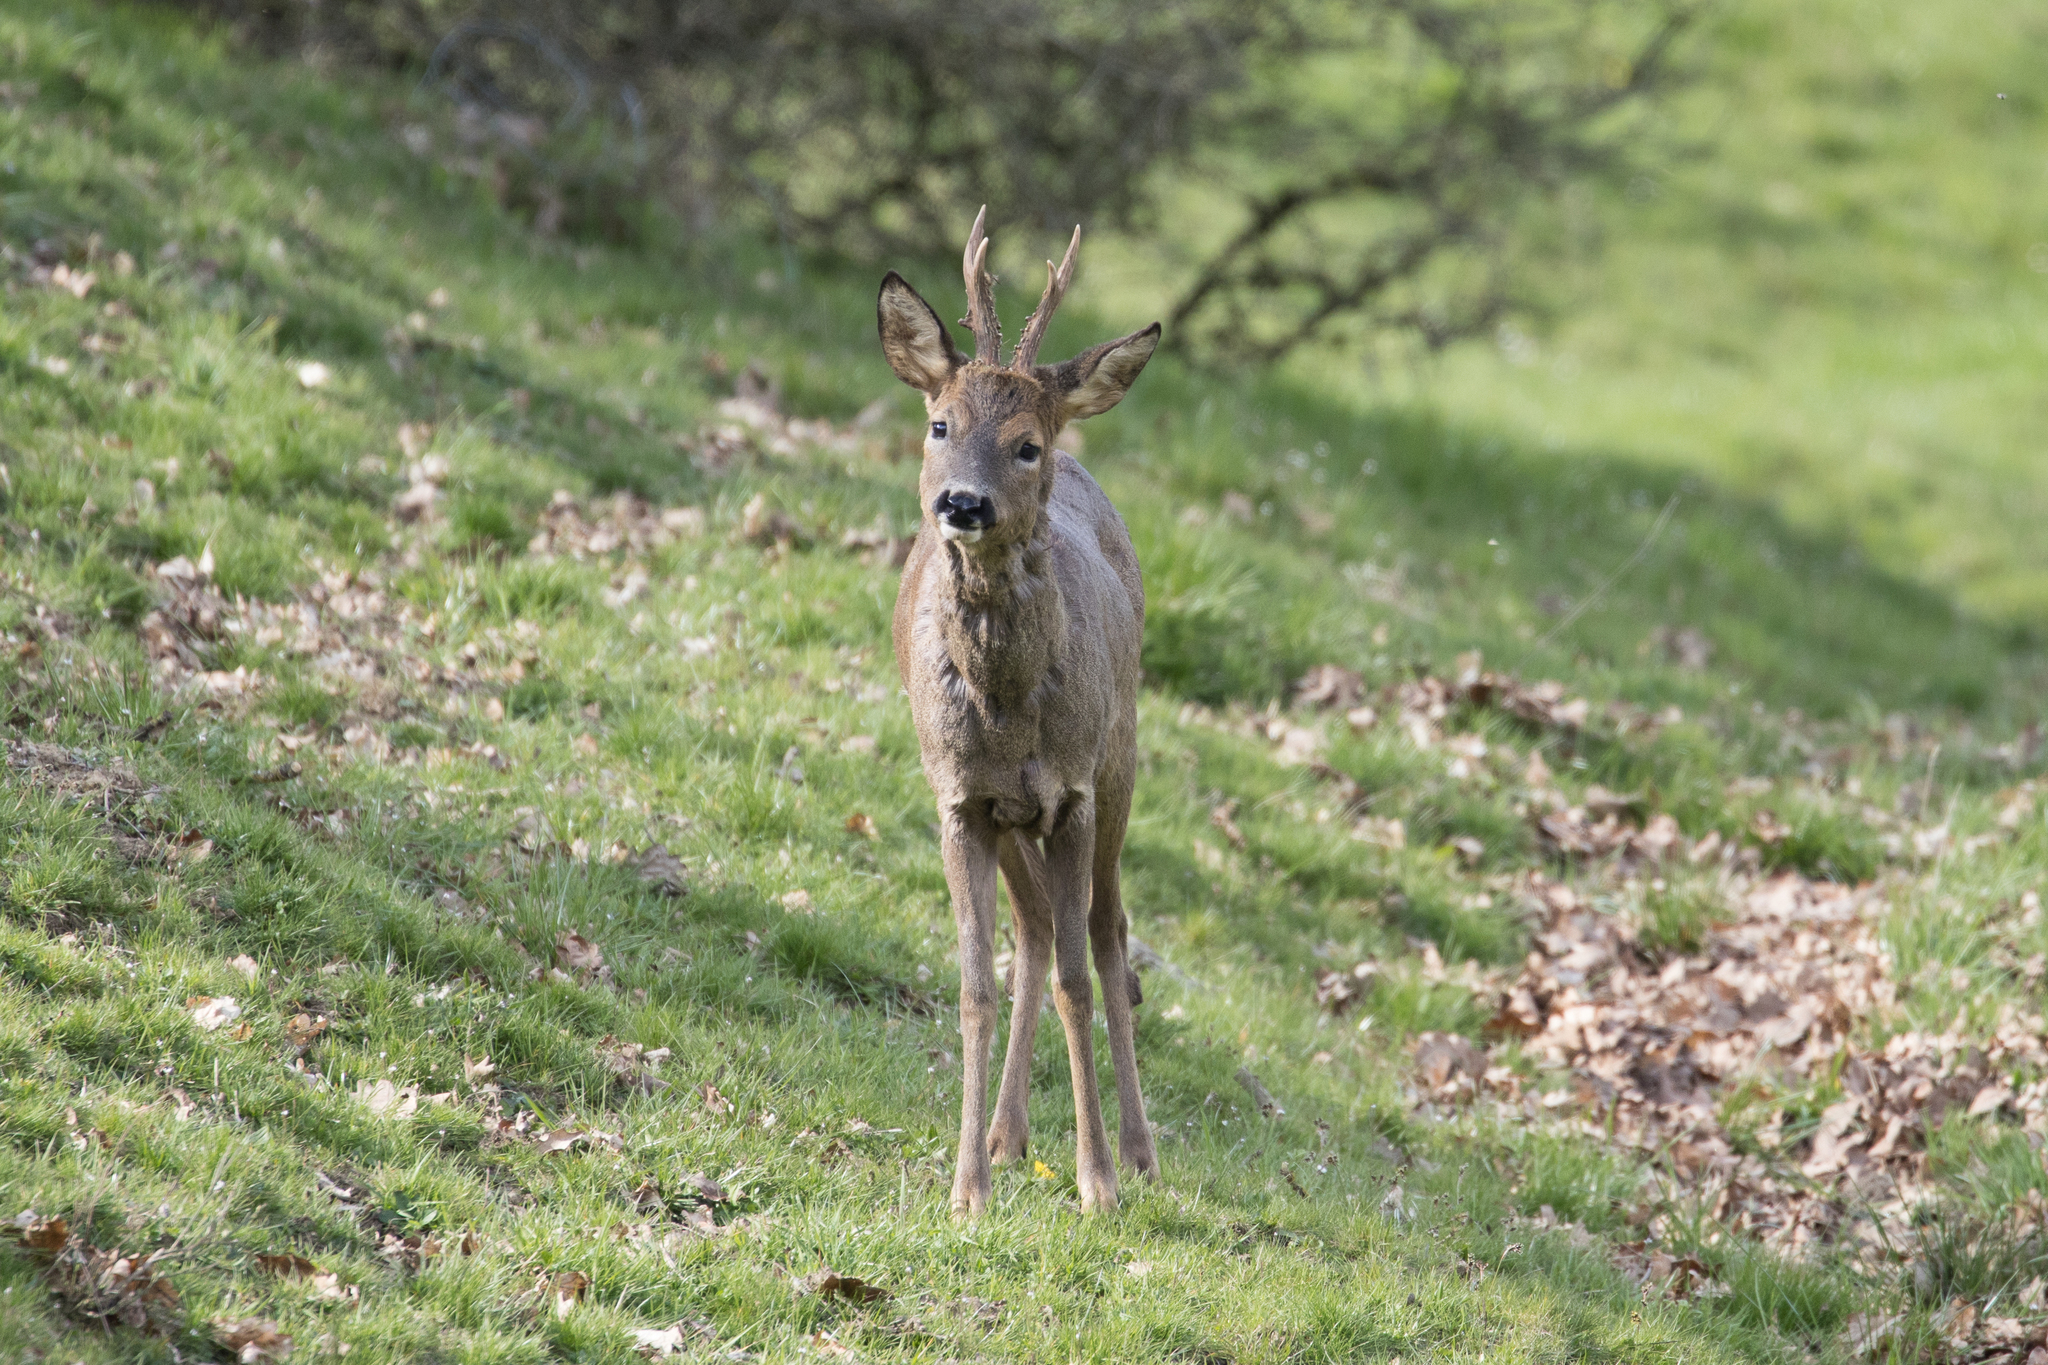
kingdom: Animalia
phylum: Chordata
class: Mammalia
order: Artiodactyla
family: Cervidae
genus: Capreolus
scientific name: Capreolus capreolus
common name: Western roe deer
